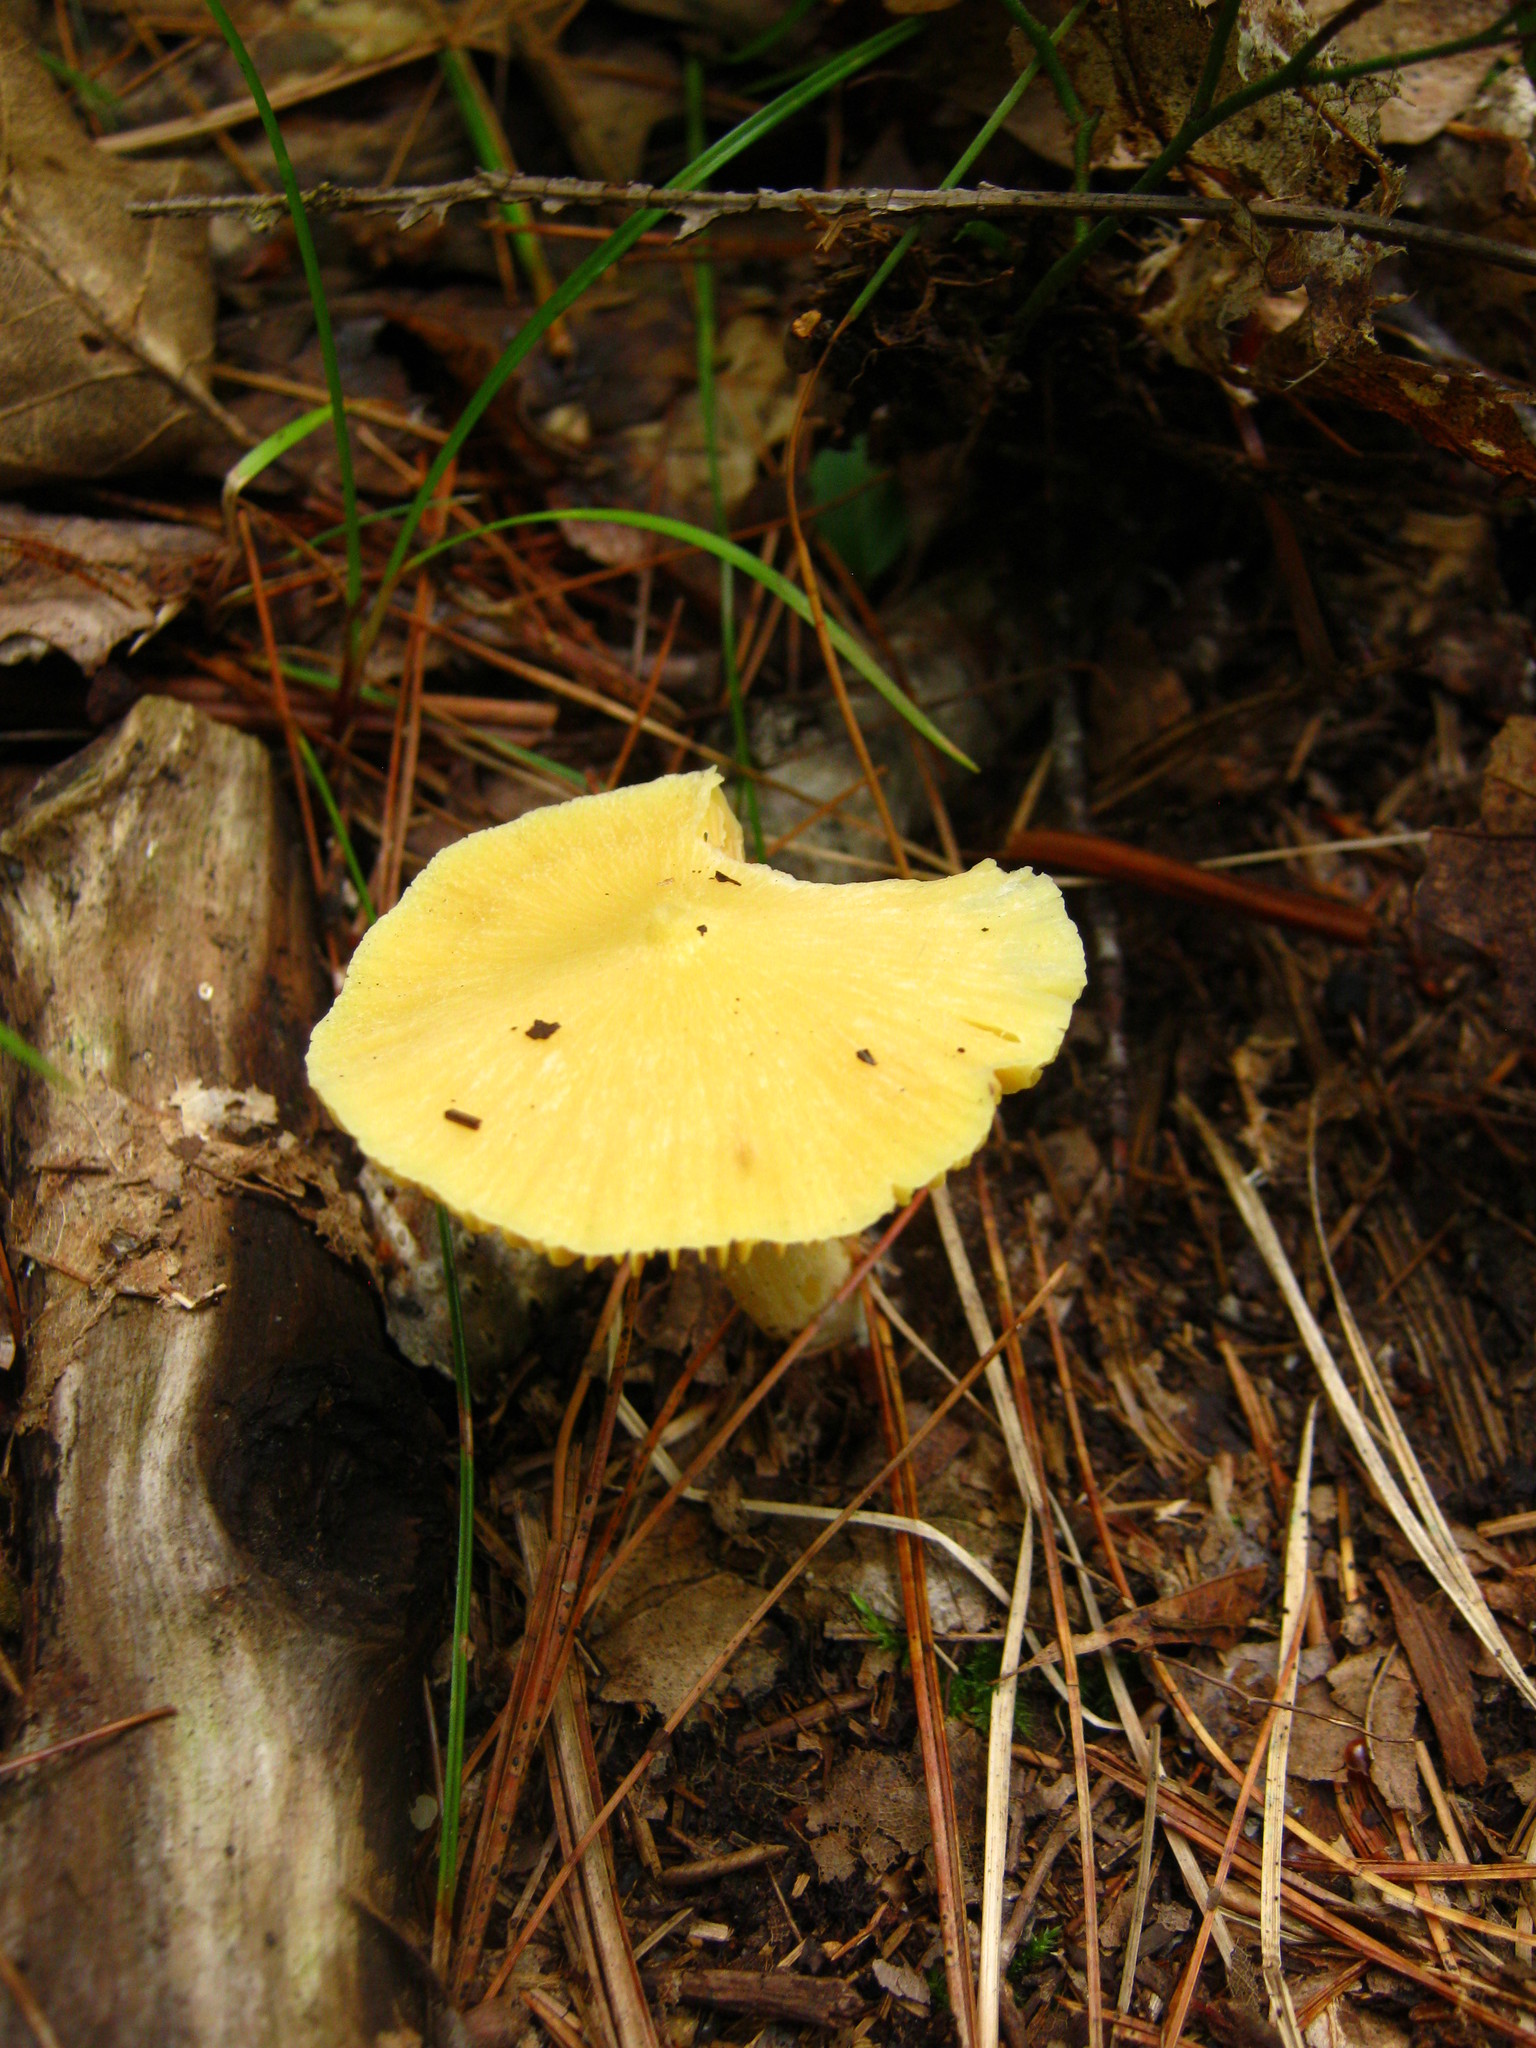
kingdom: Fungi
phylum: Basidiomycota
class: Agaricomycetes
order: Agaricales
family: Entolomataceae
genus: Entoloma
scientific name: Entoloma murrayi
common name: Yellow unicorn entoloma
